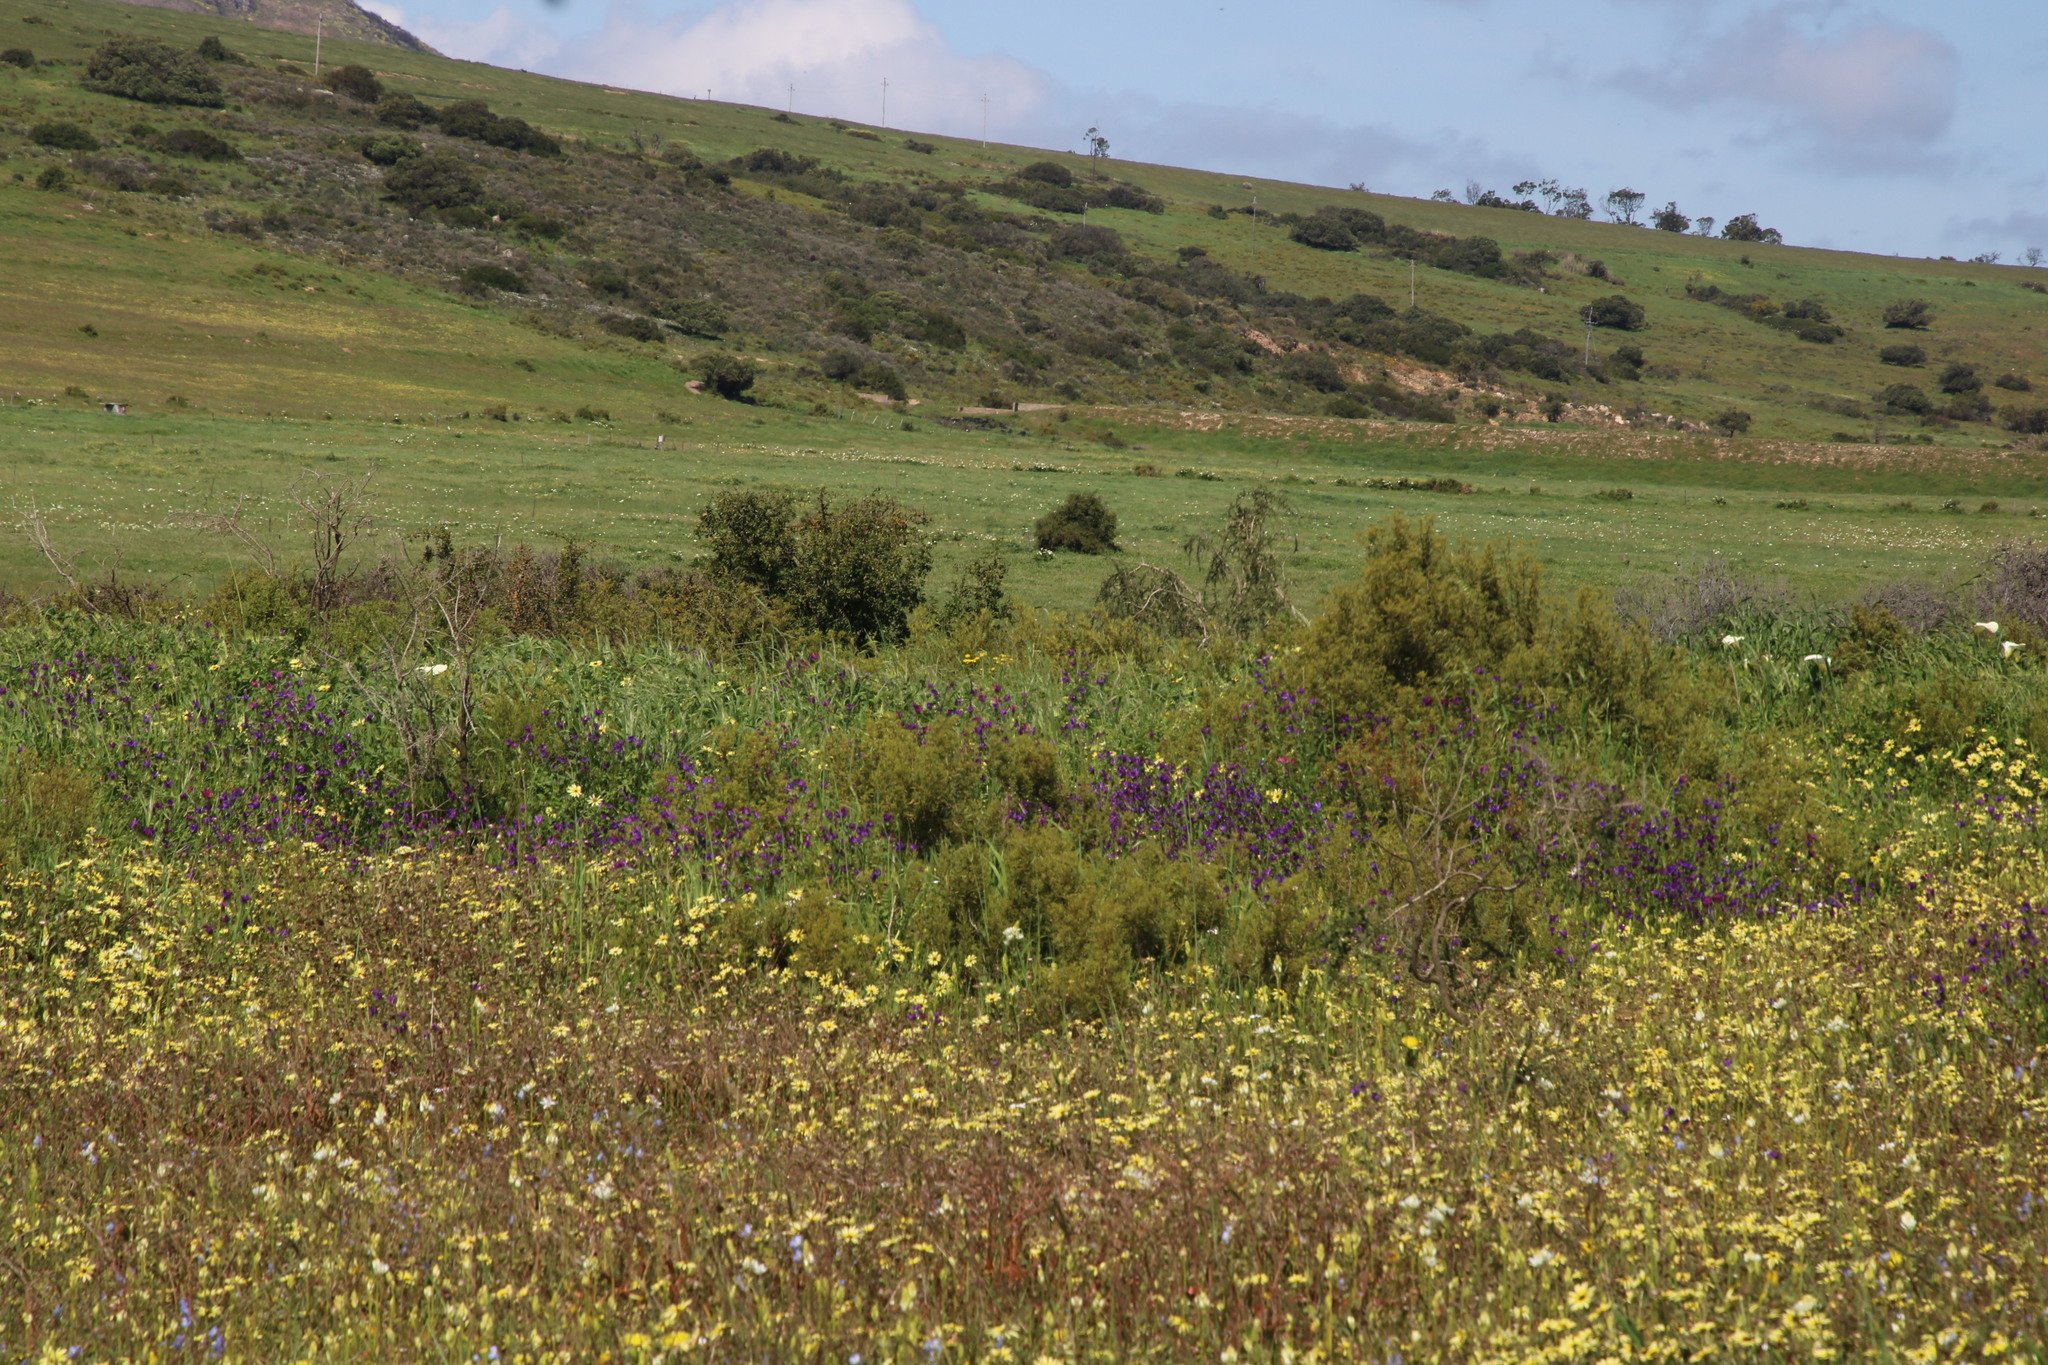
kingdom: Plantae
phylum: Tracheophyta
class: Magnoliopsida
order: Boraginales
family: Boraginaceae
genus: Echium
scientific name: Echium plantagineum
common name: Purple viper's-bugloss
